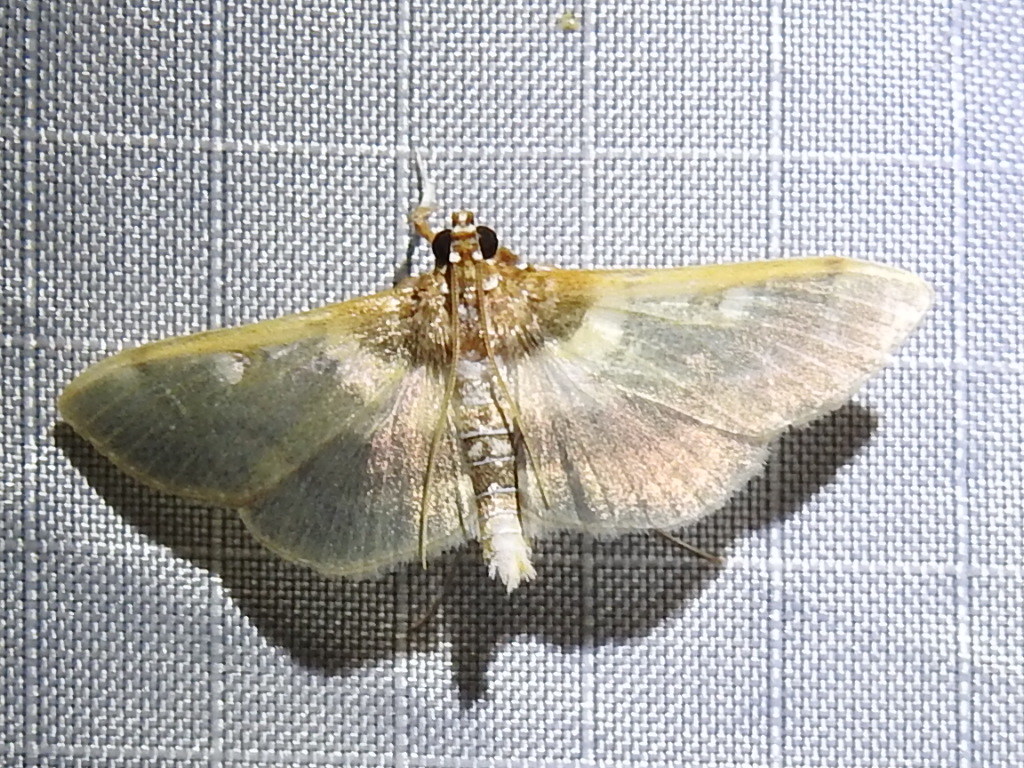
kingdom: Animalia
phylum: Arthropoda
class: Insecta
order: Lepidoptera
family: Crambidae
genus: Apilocrocis
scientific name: Apilocrocis brumalis
